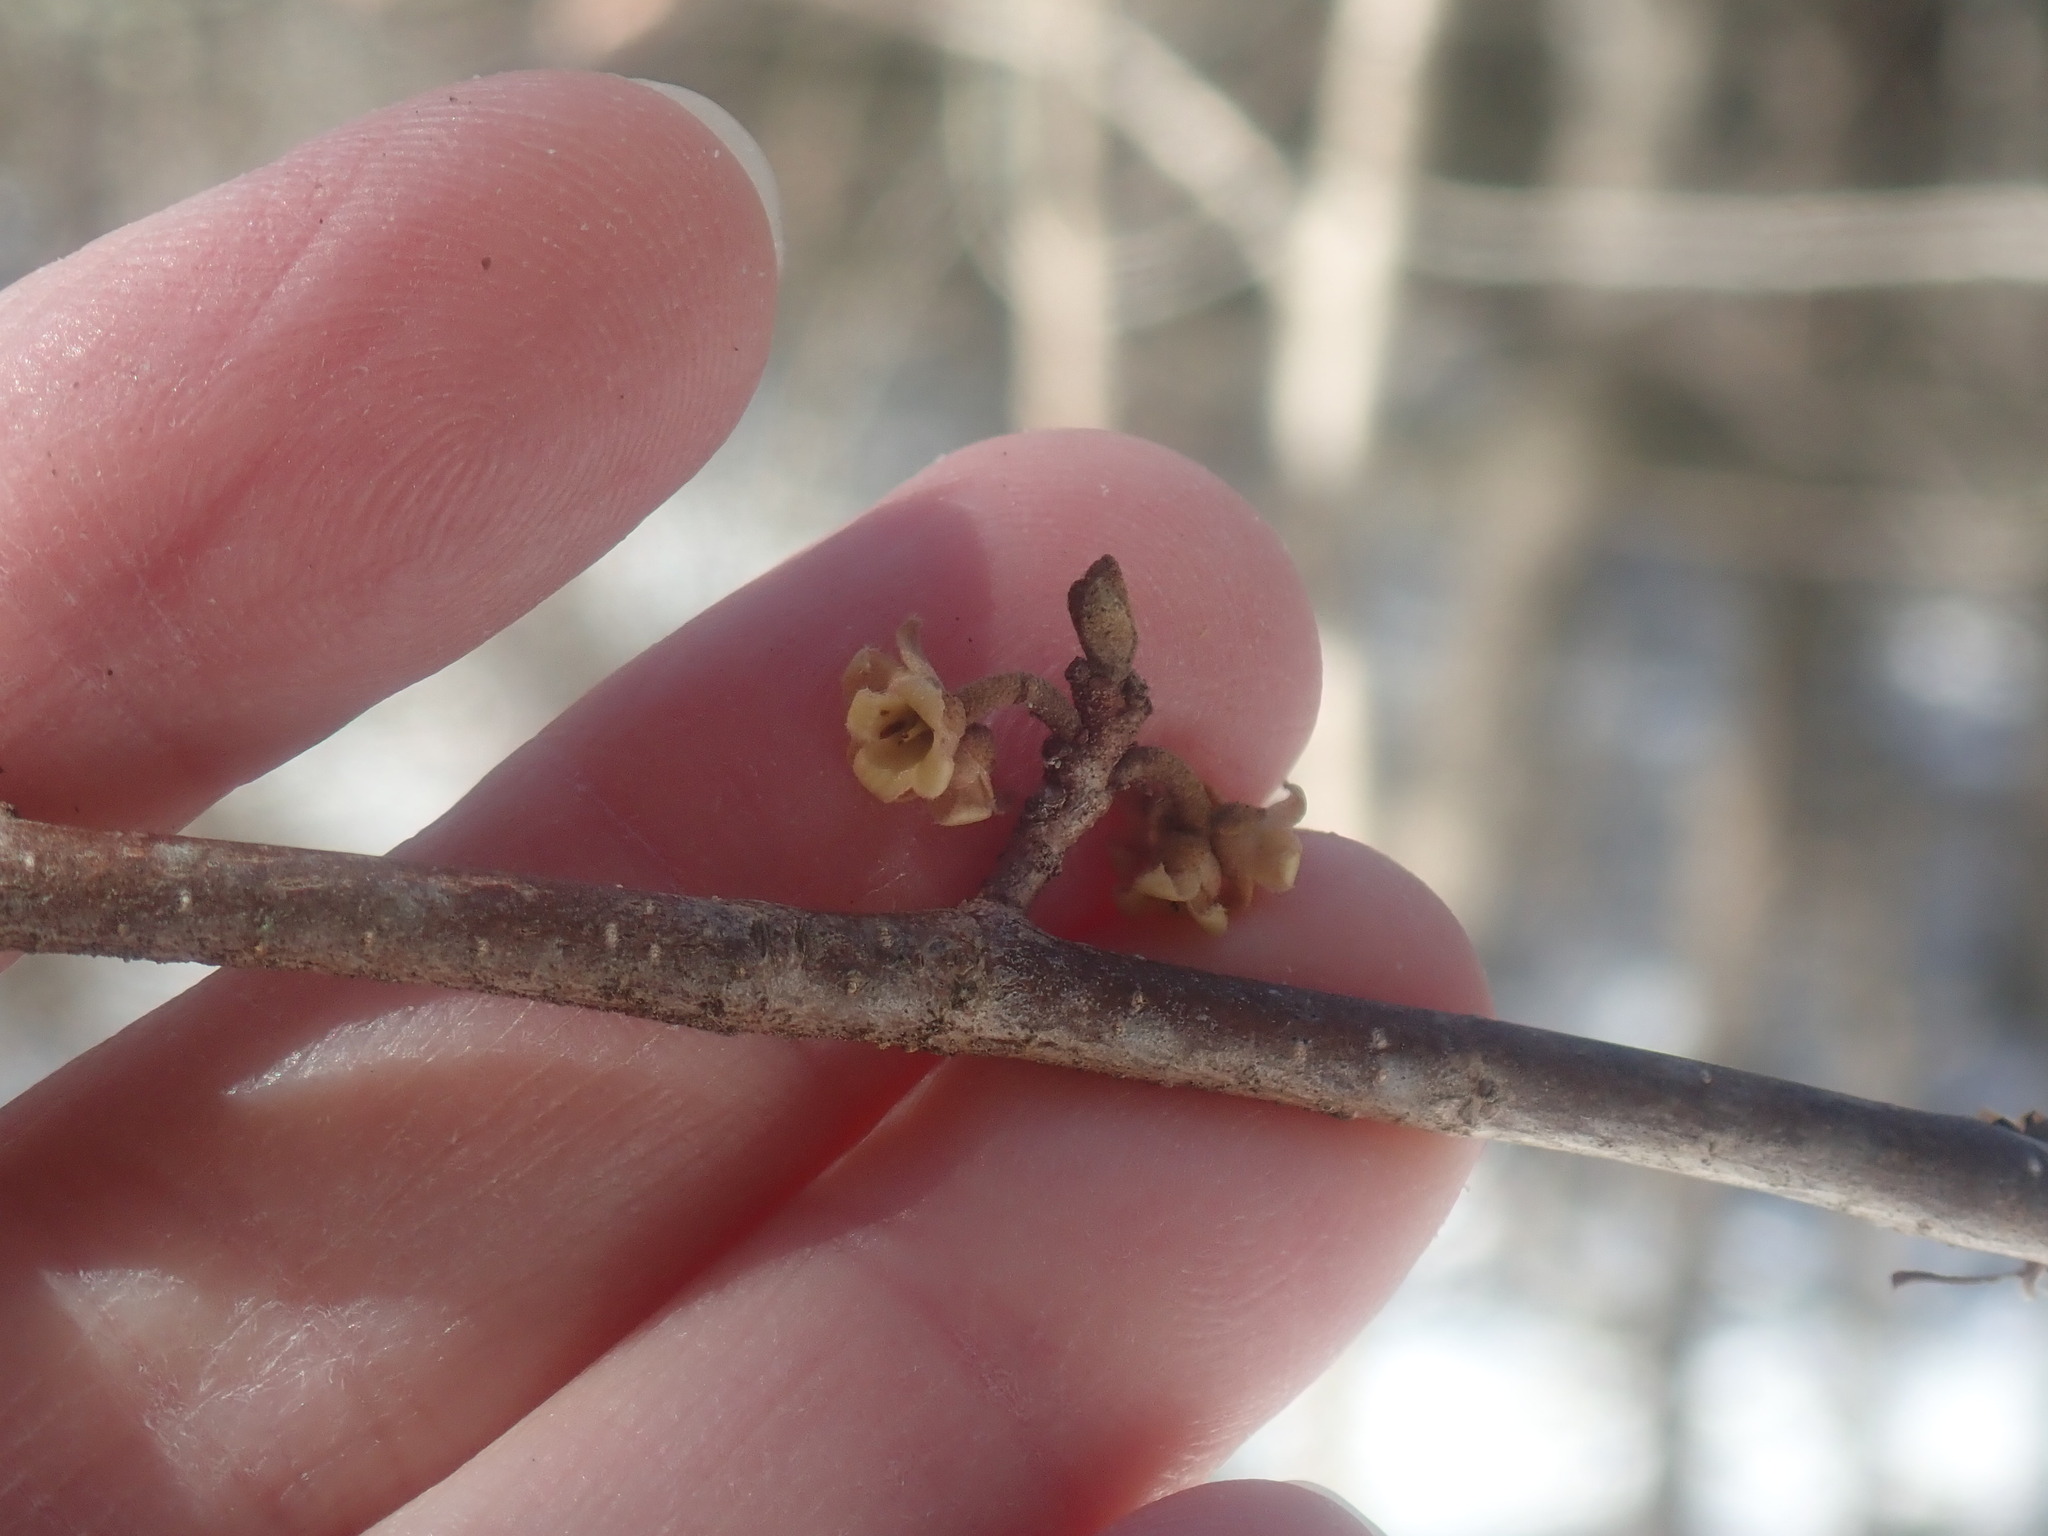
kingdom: Plantae
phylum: Tracheophyta
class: Magnoliopsida
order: Saxifragales
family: Hamamelidaceae
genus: Hamamelis
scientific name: Hamamelis virginiana
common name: Witch-hazel
